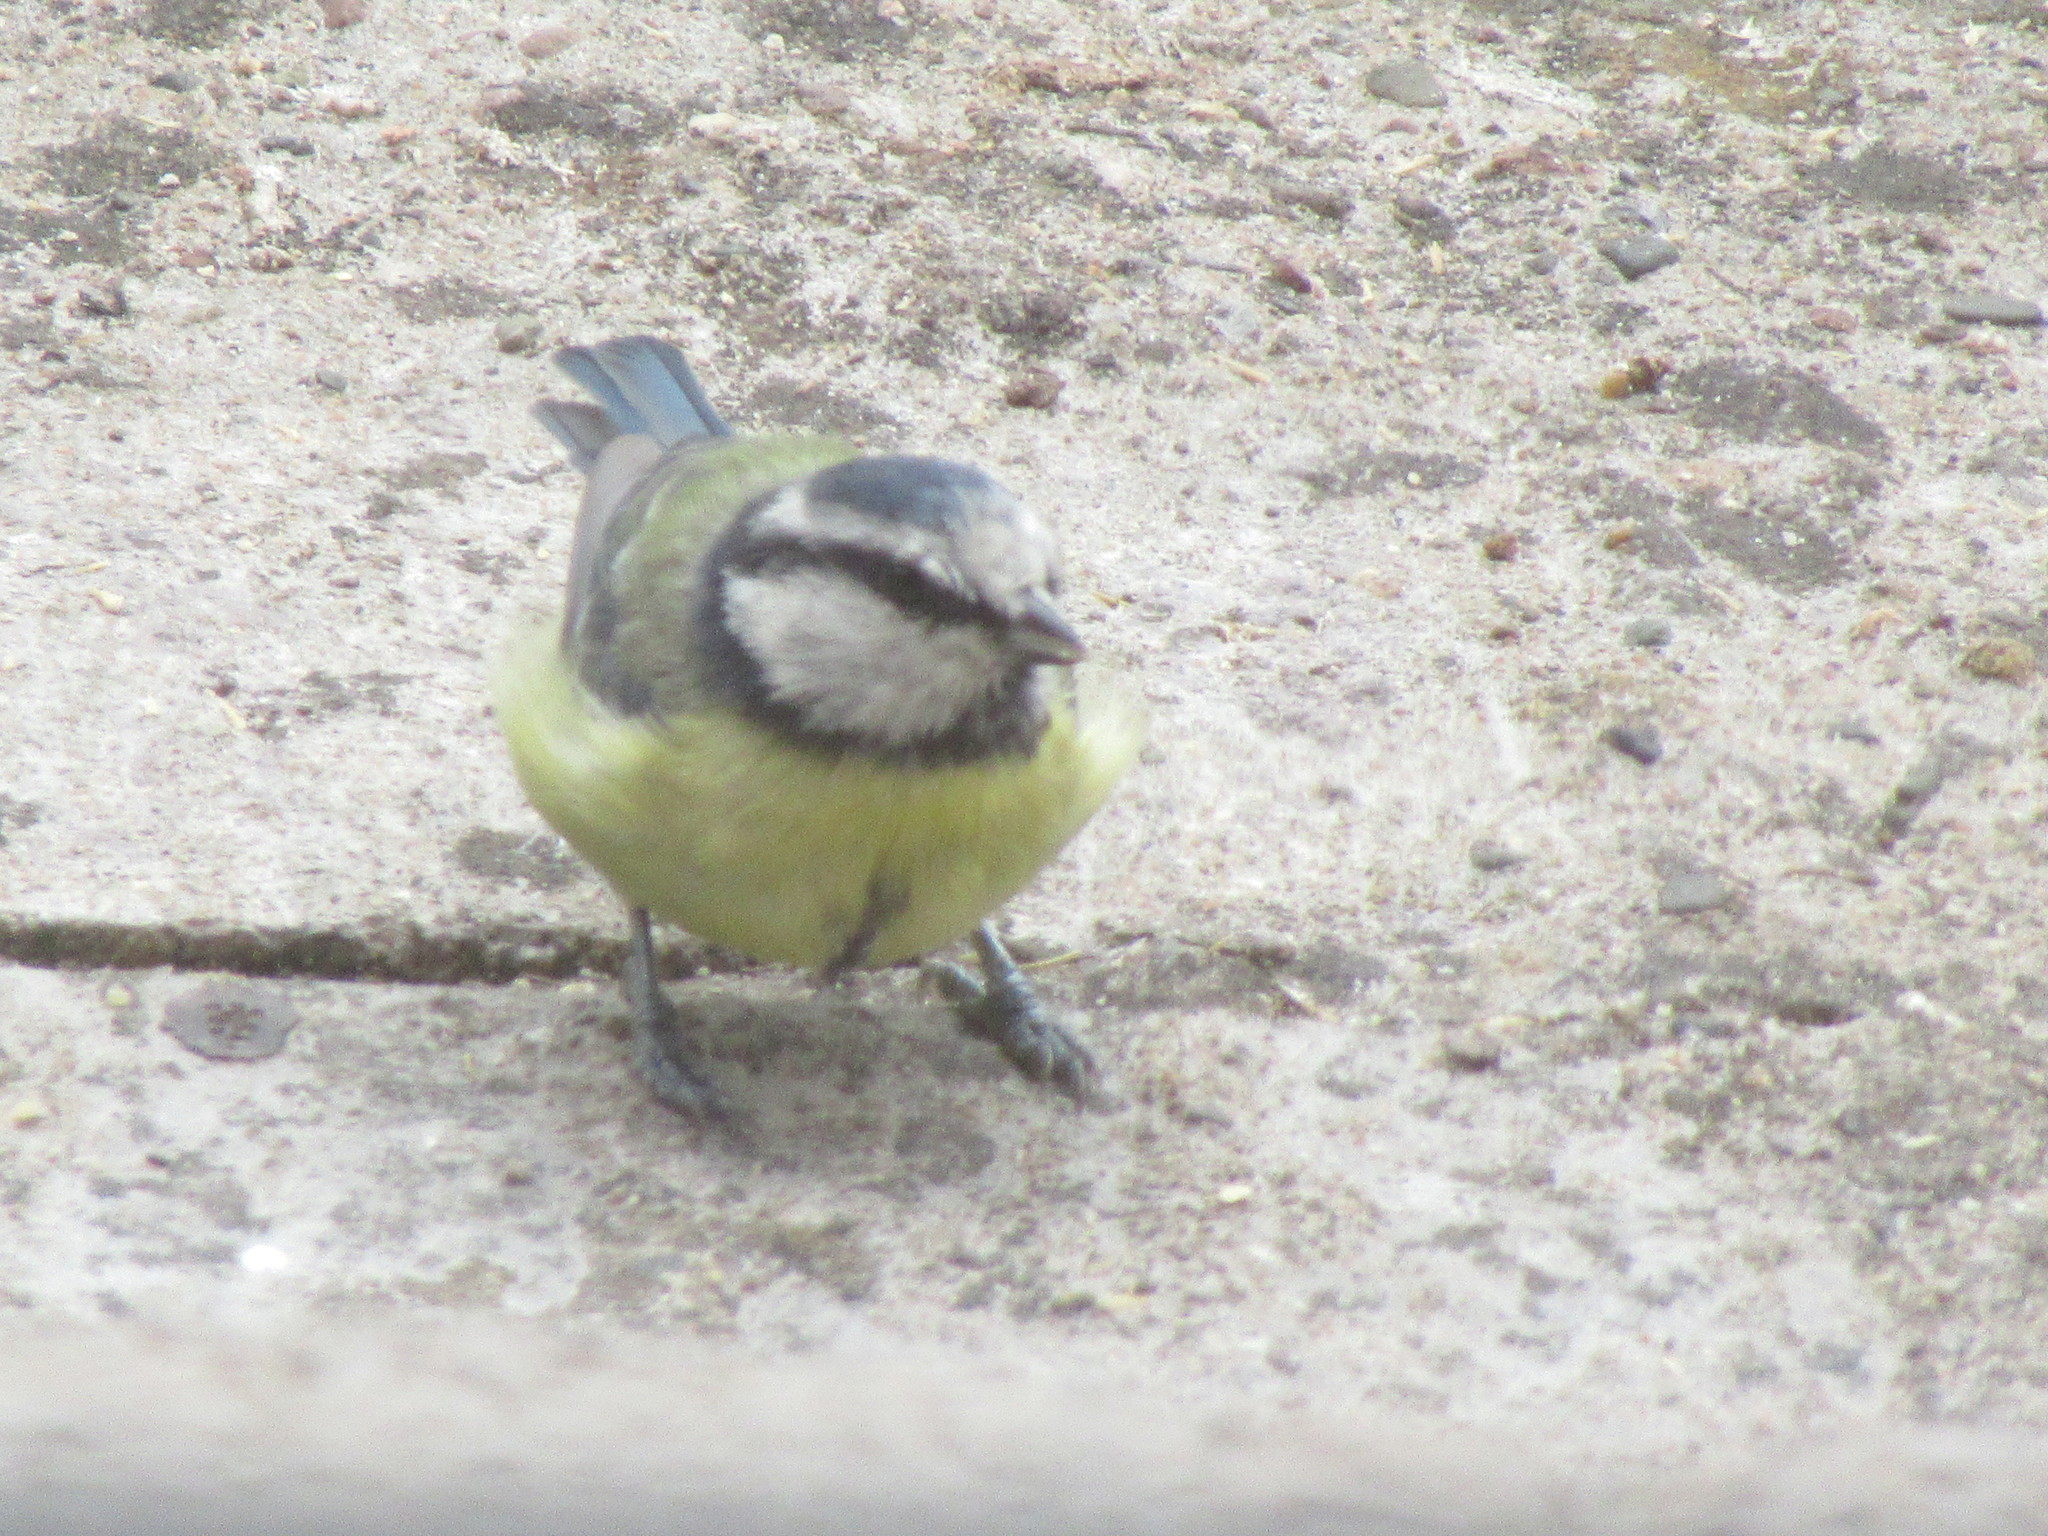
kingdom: Animalia
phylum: Chordata
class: Aves
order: Passeriformes
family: Paridae
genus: Cyanistes
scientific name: Cyanistes caeruleus
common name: Eurasian blue tit
